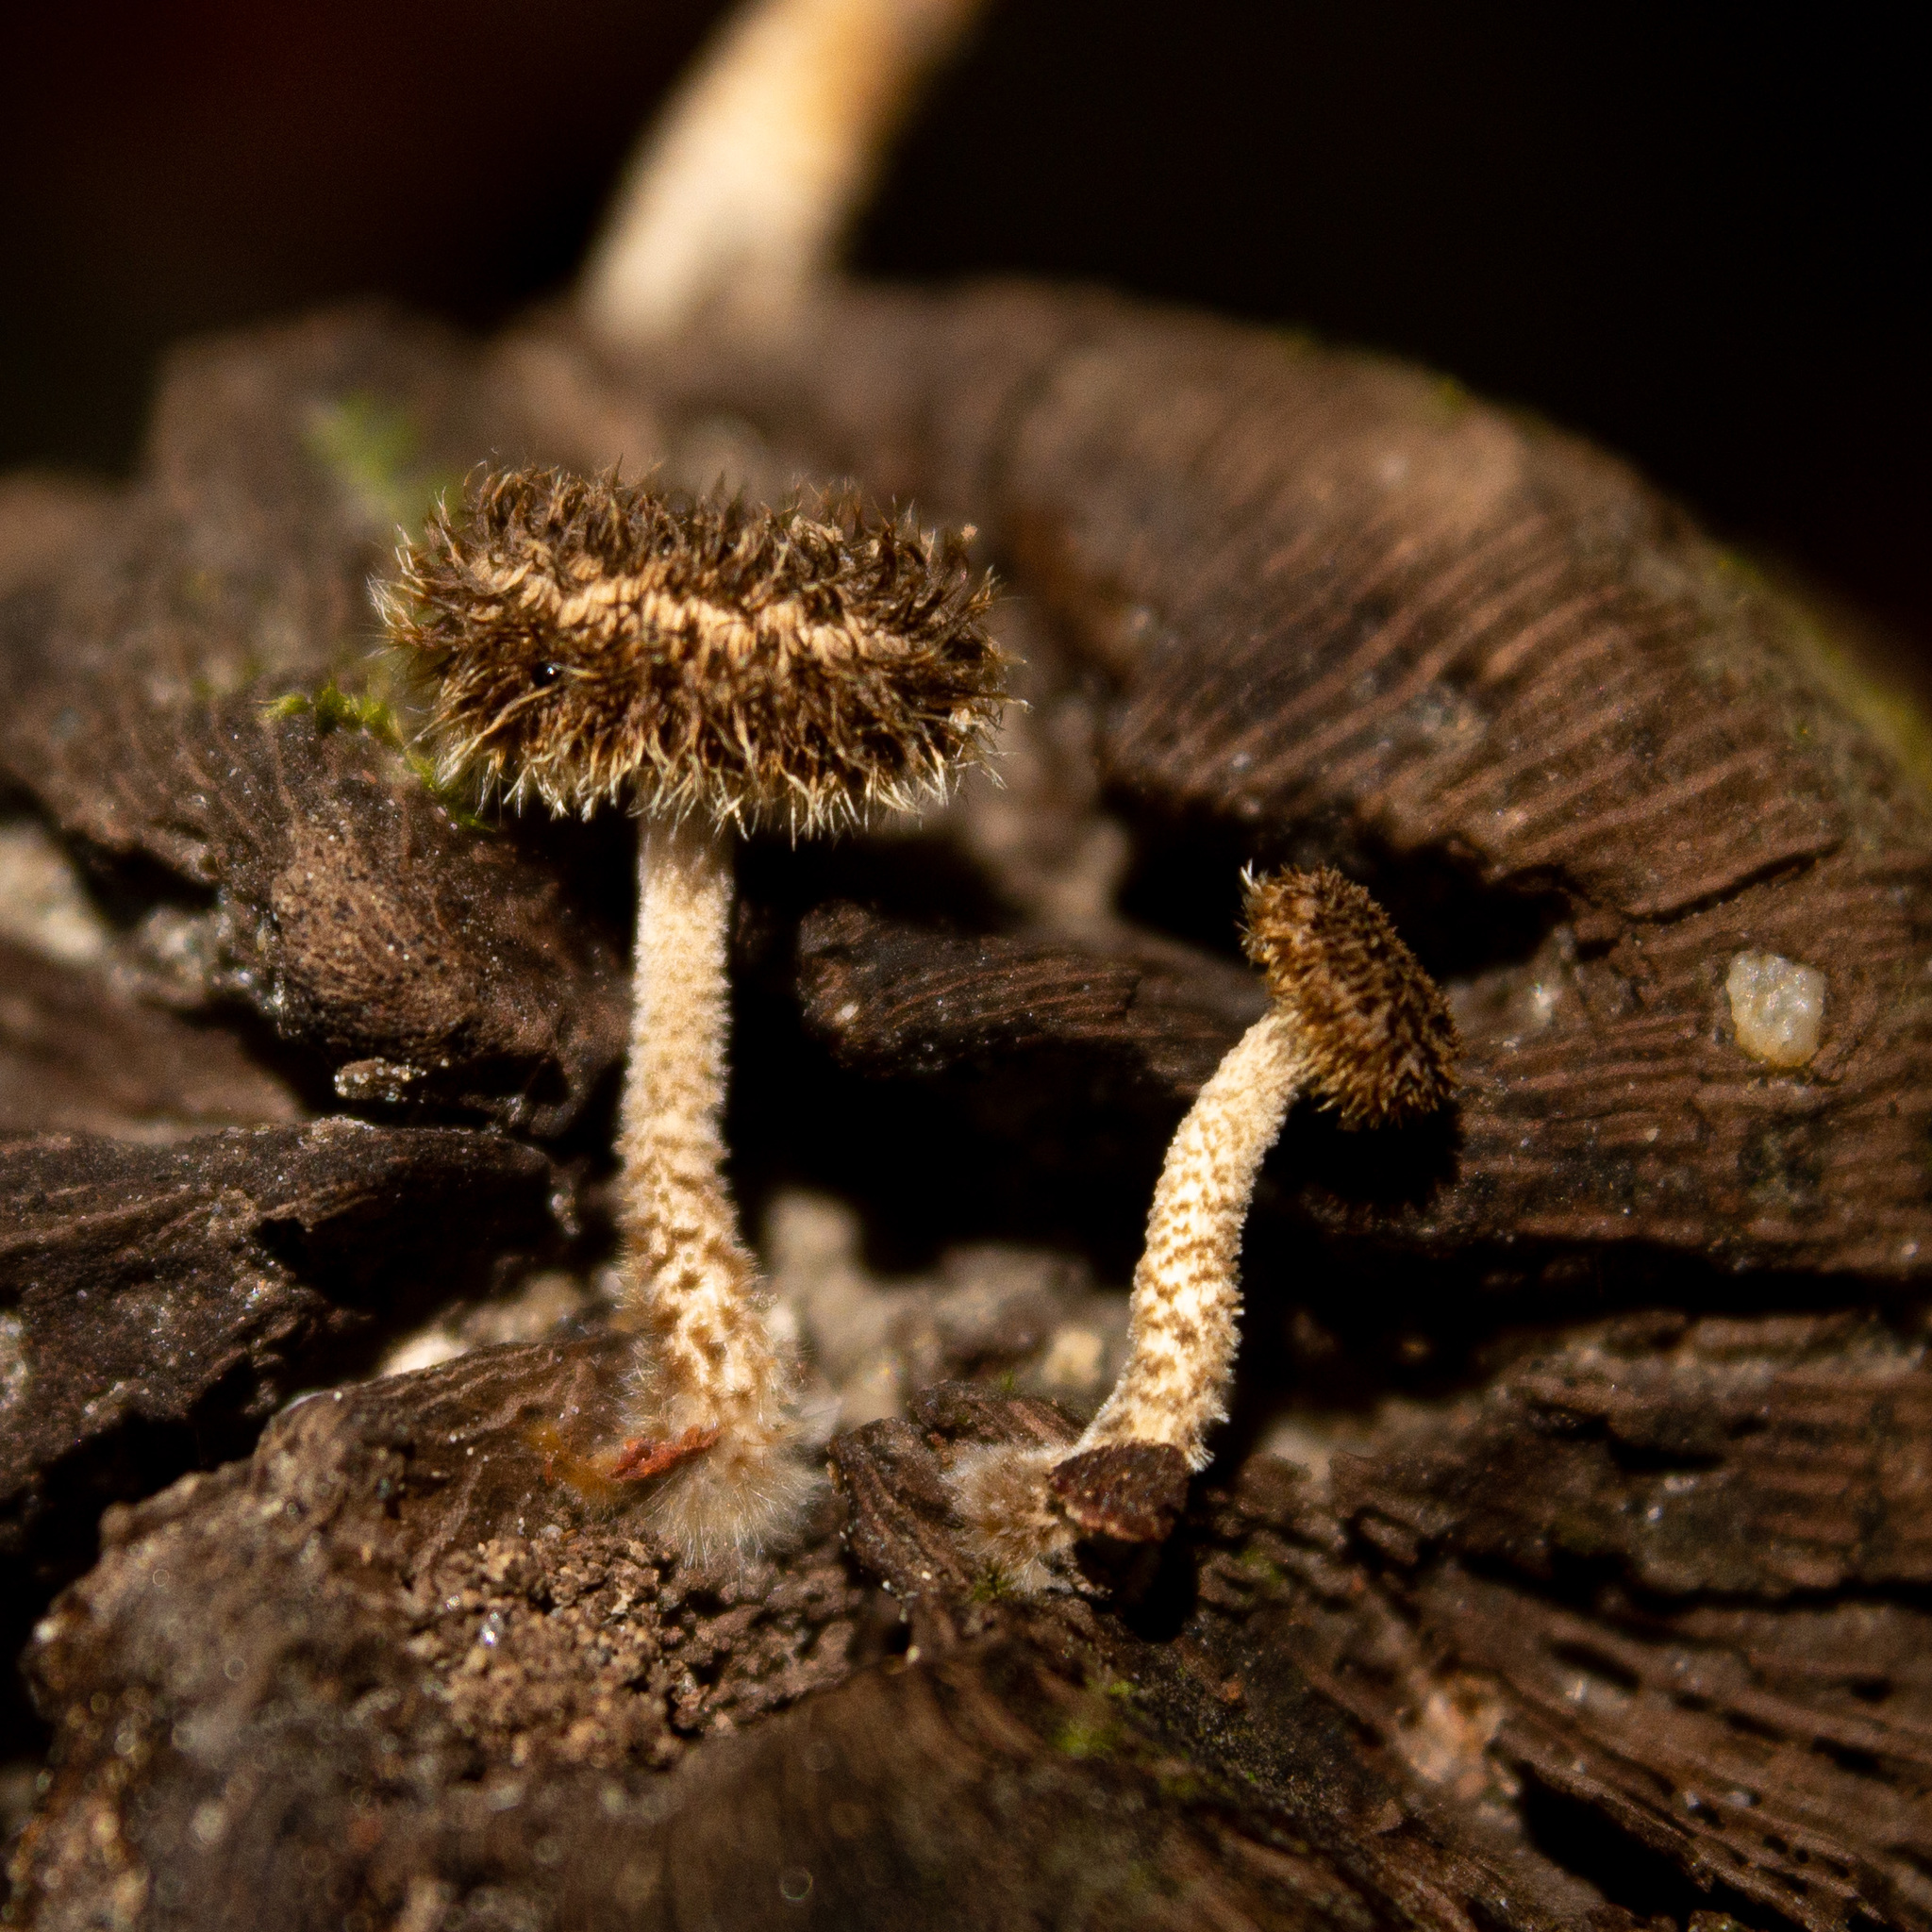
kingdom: Fungi
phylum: Basidiomycota
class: Agaricomycetes
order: Polyporales
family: Polyporaceae
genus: Lentinus
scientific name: Lentinus berteroi
